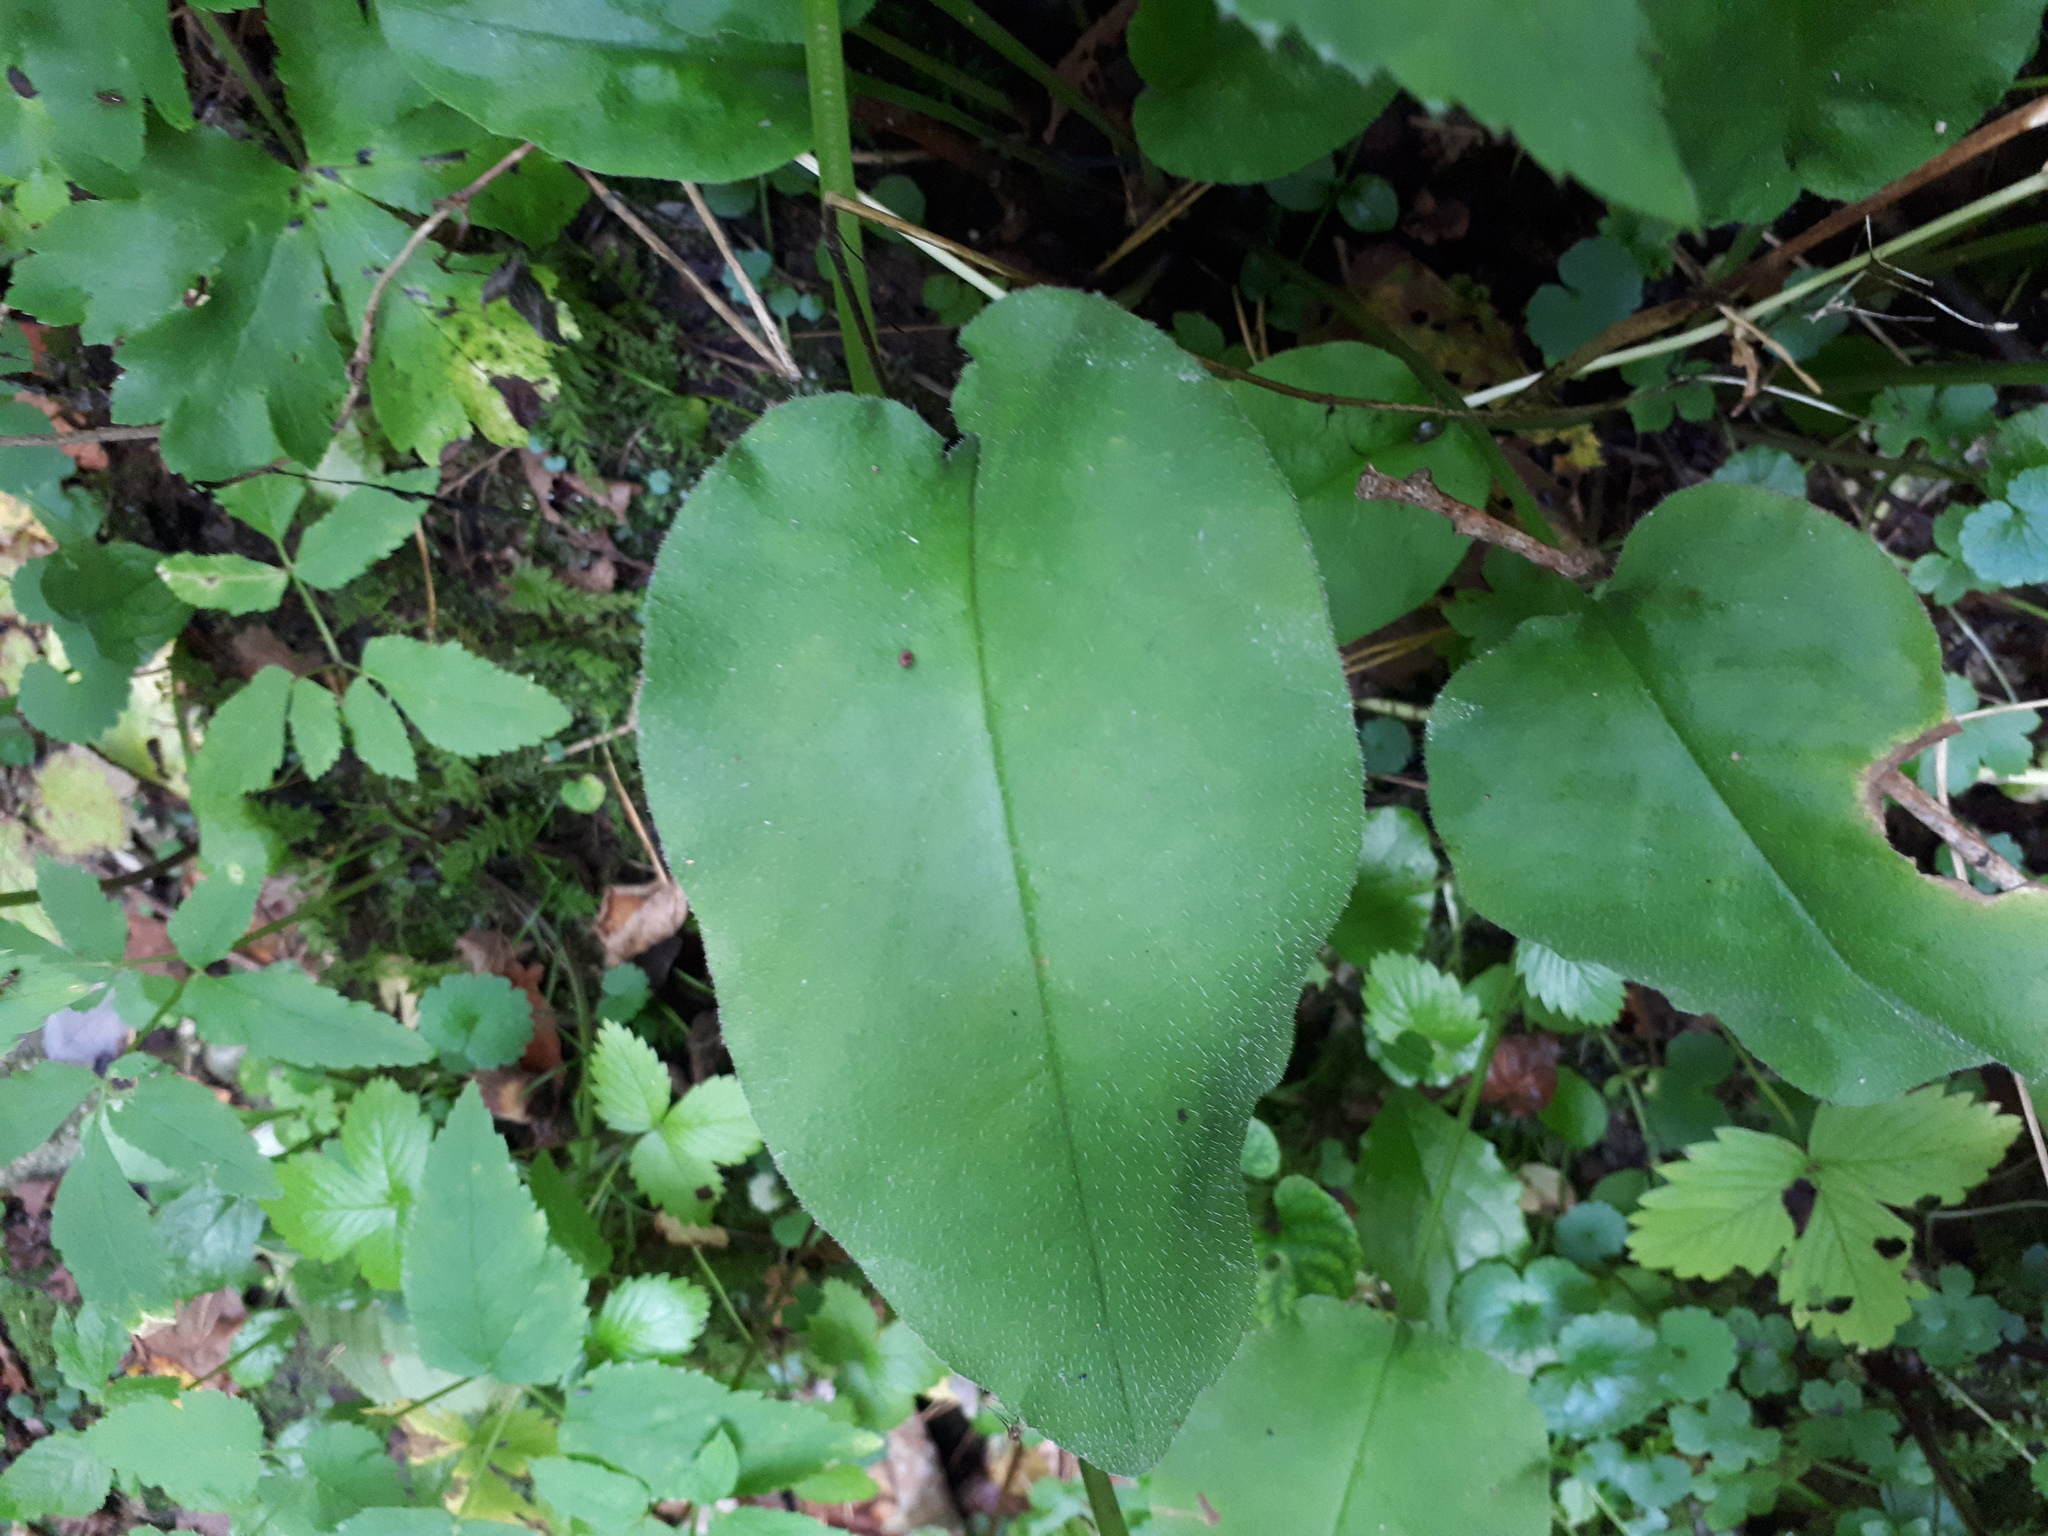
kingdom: Plantae
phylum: Tracheophyta
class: Magnoliopsida
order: Boraginales
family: Boraginaceae
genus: Pulmonaria
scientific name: Pulmonaria obscura
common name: Suffolk lungwort
